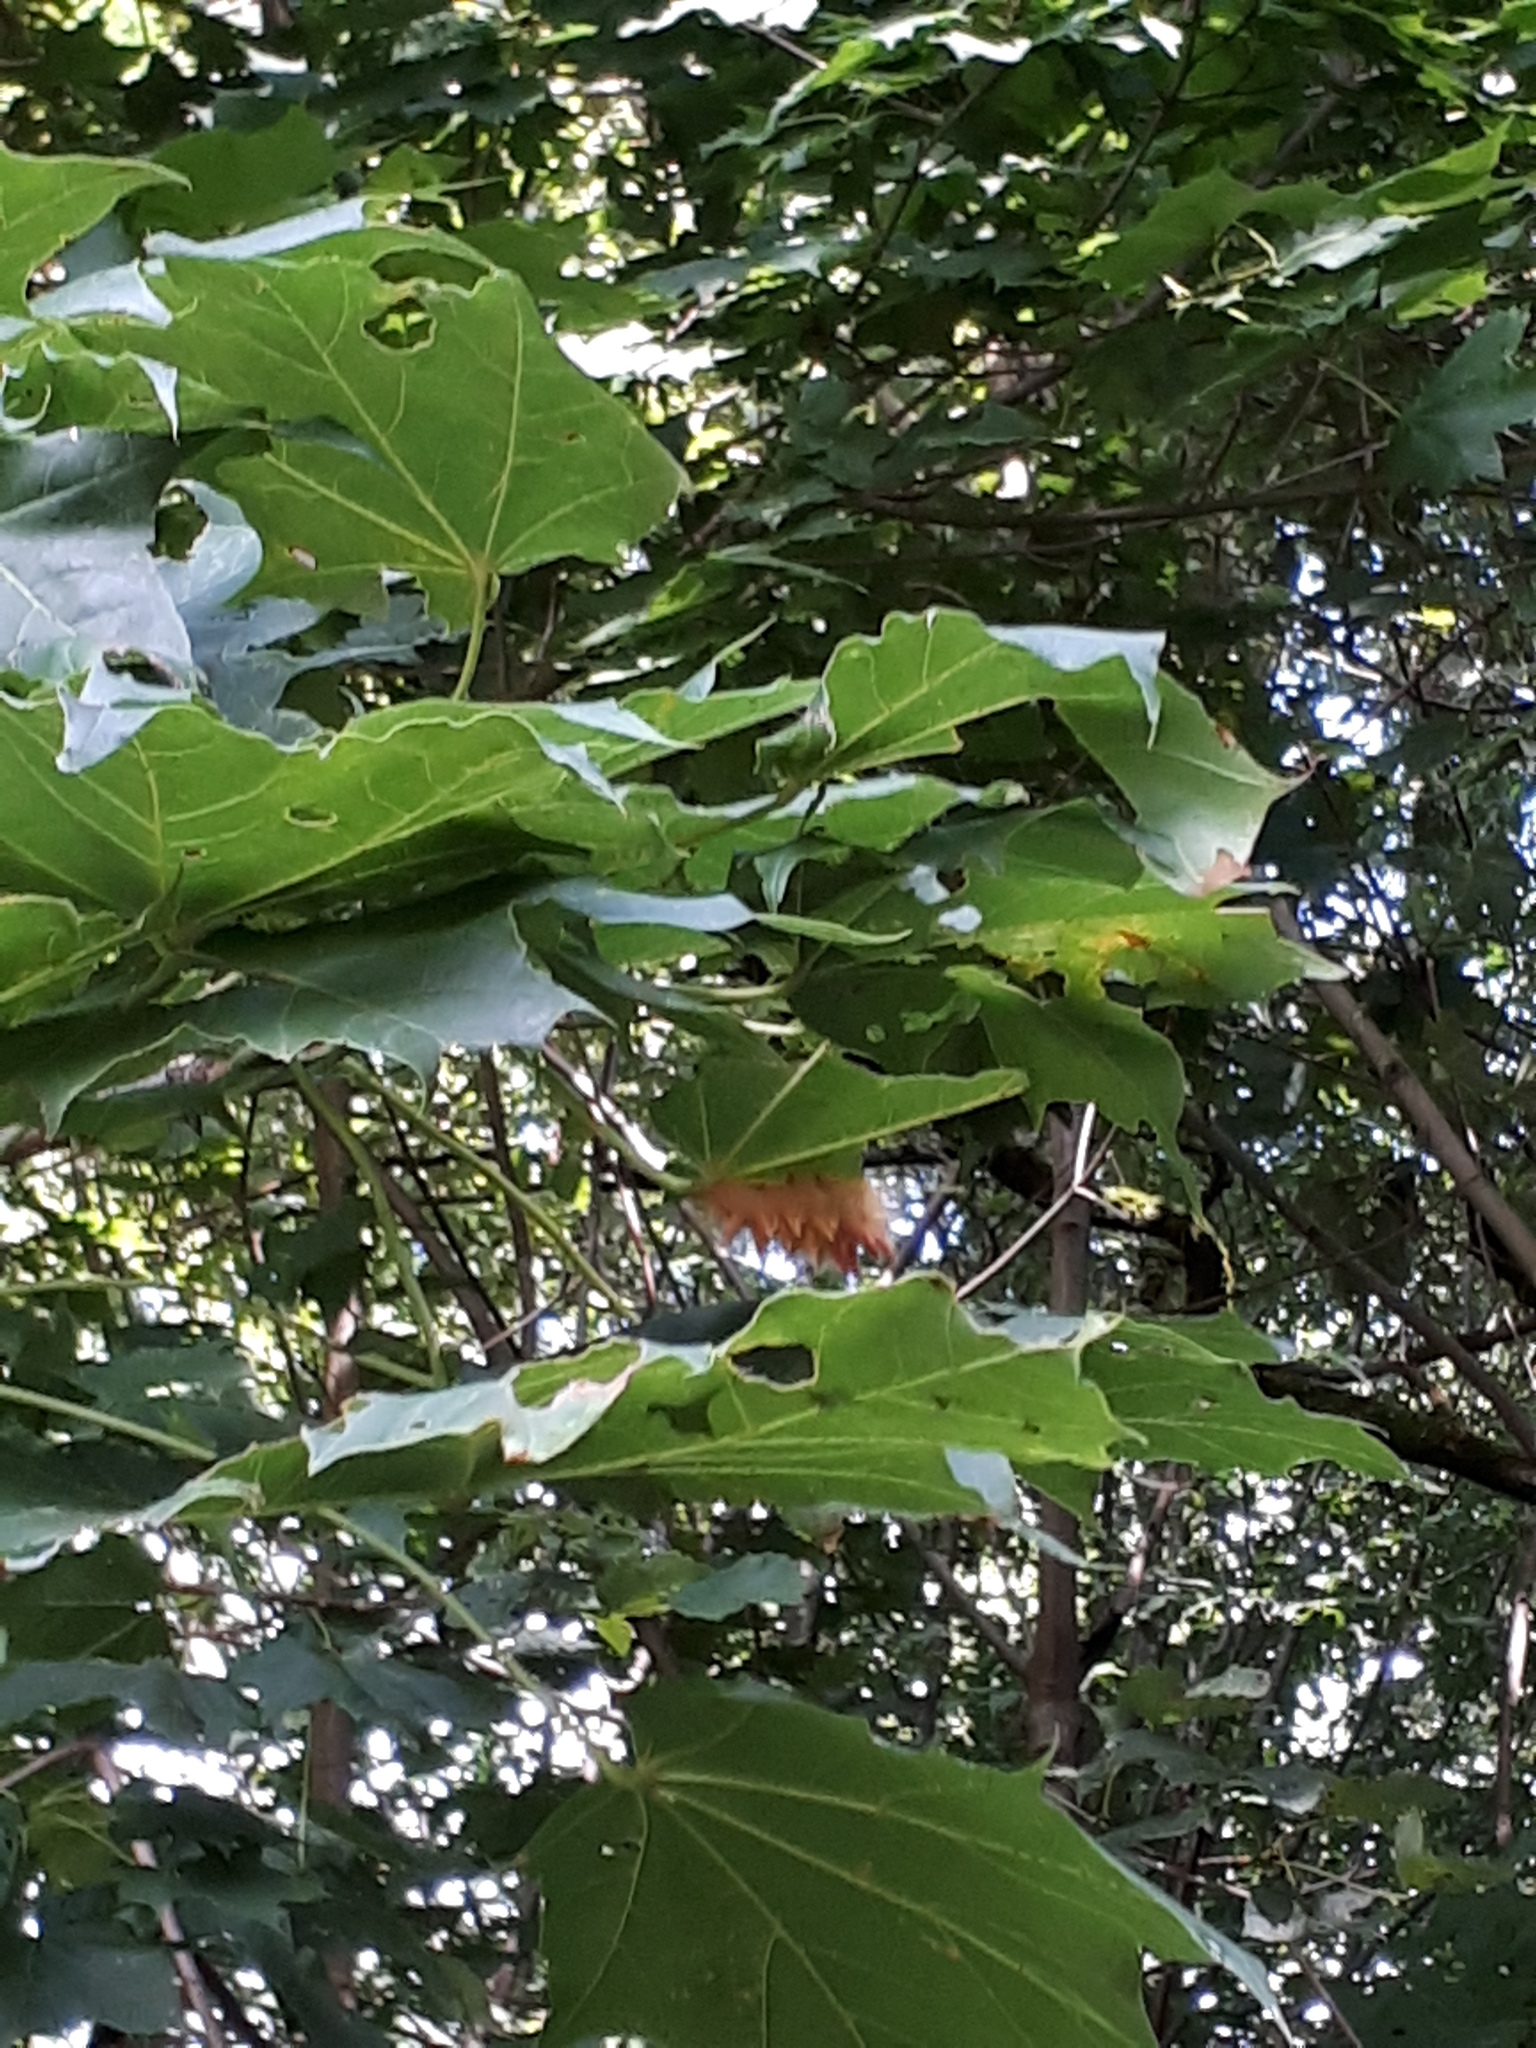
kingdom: Animalia
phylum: Arthropoda
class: Insecta
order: Lepidoptera
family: Noctuidae
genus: Acronicta
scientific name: Acronicta aceris
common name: Sycamore
